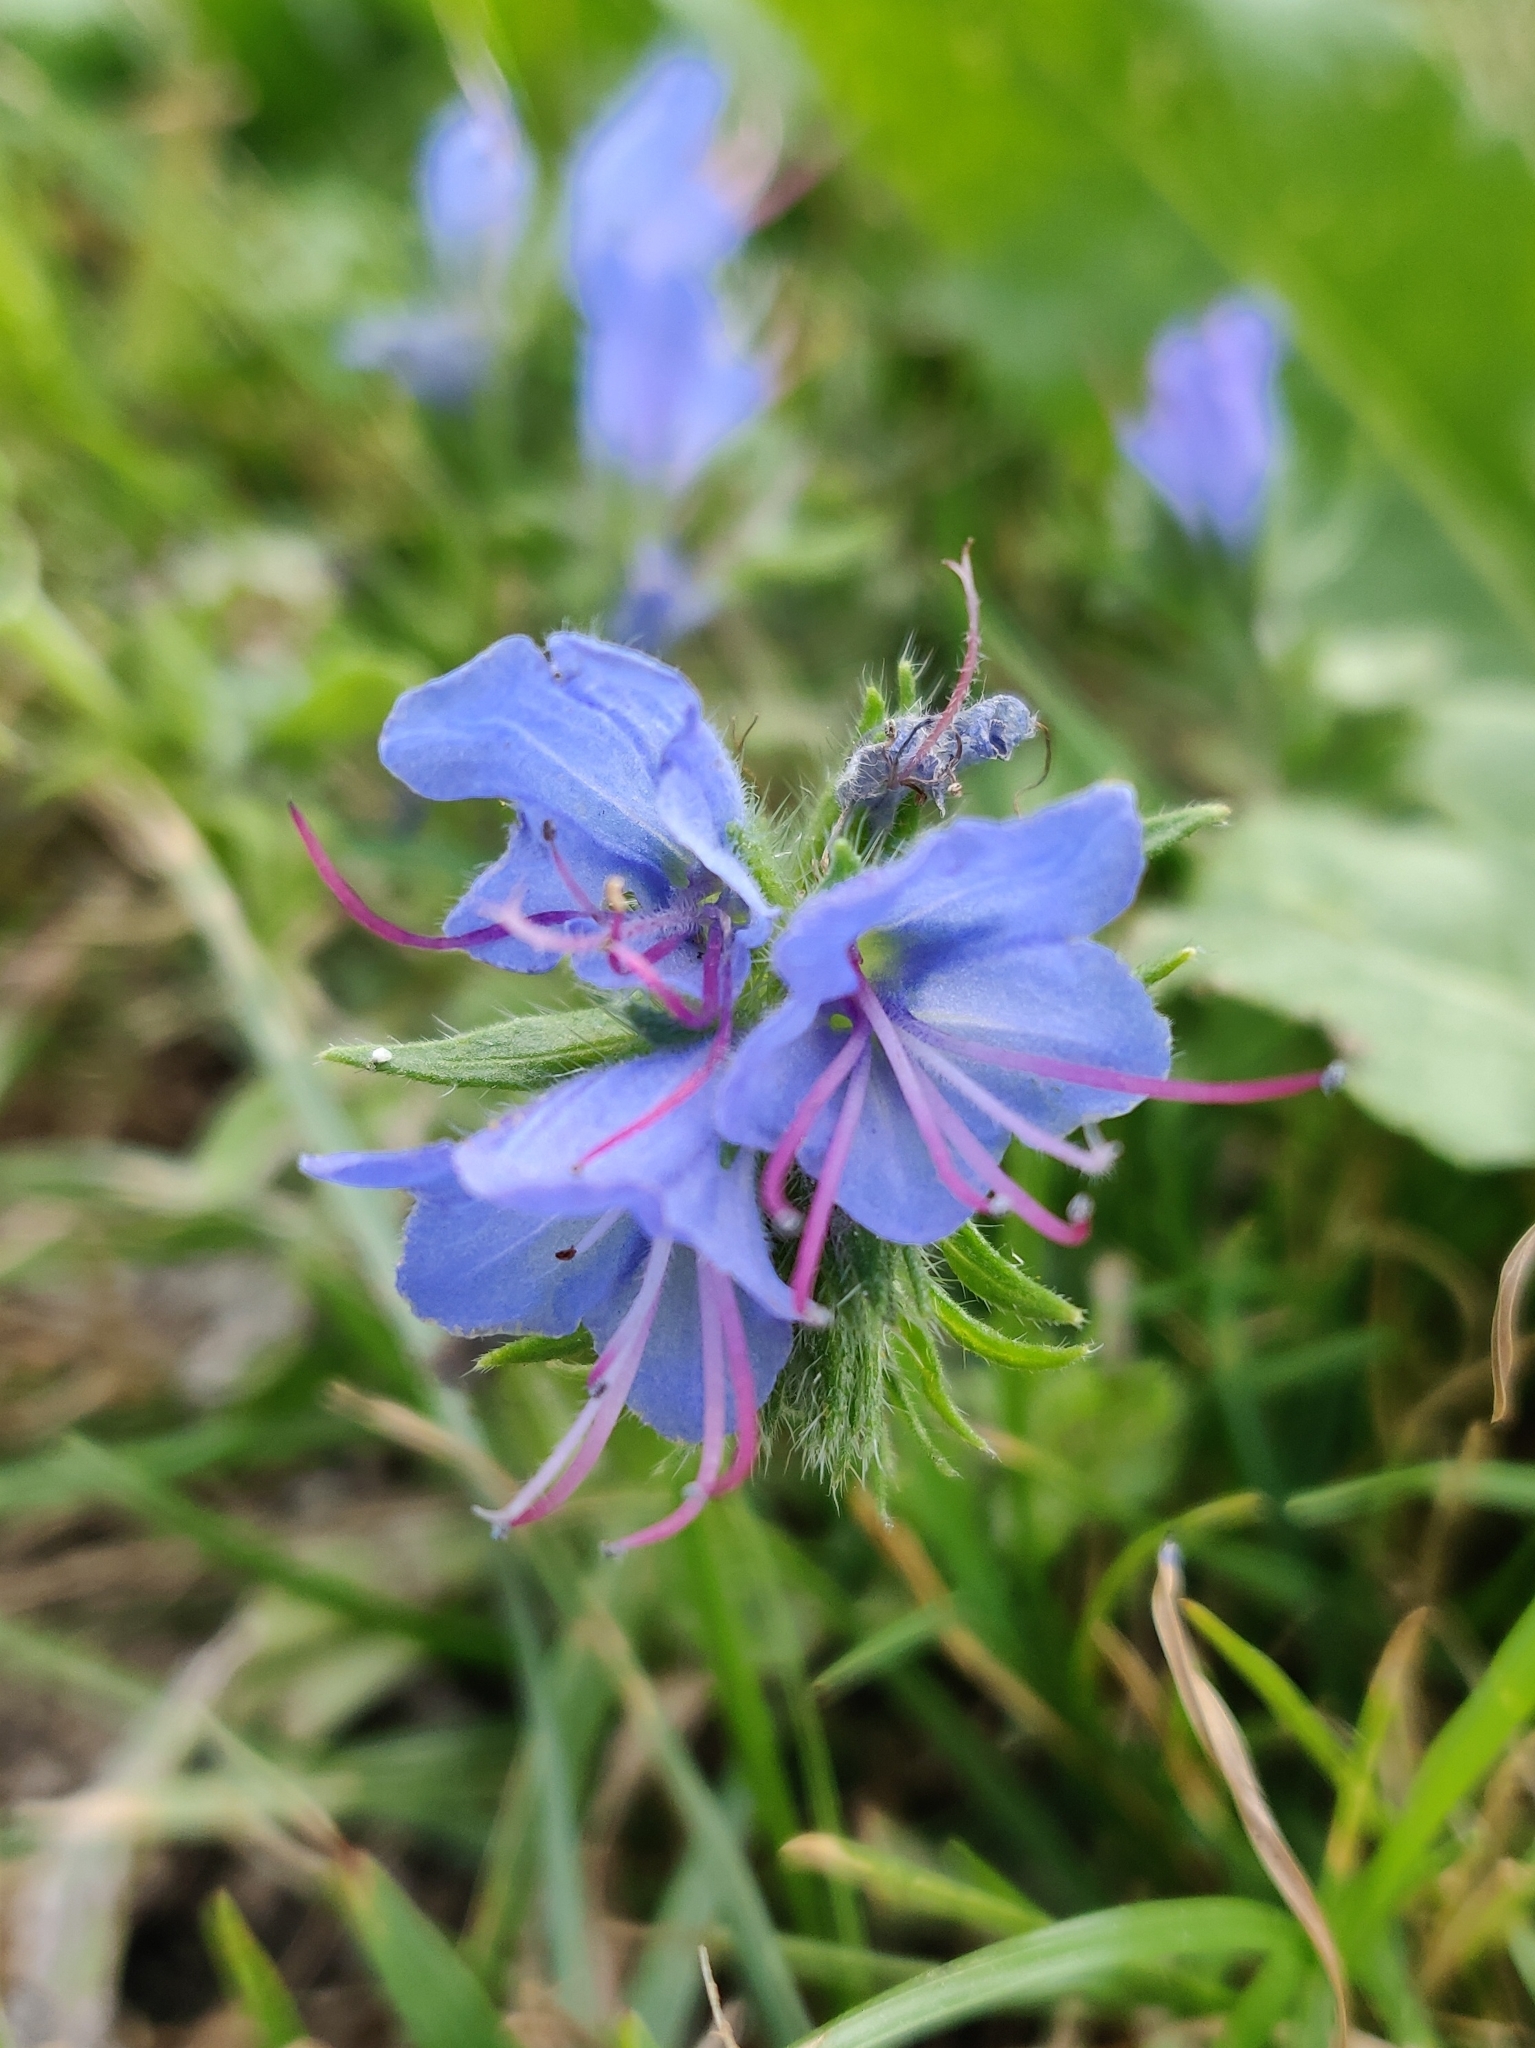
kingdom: Plantae
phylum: Tracheophyta
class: Magnoliopsida
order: Boraginales
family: Boraginaceae
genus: Echium
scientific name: Echium vulgare
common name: Common viper's bugloss
